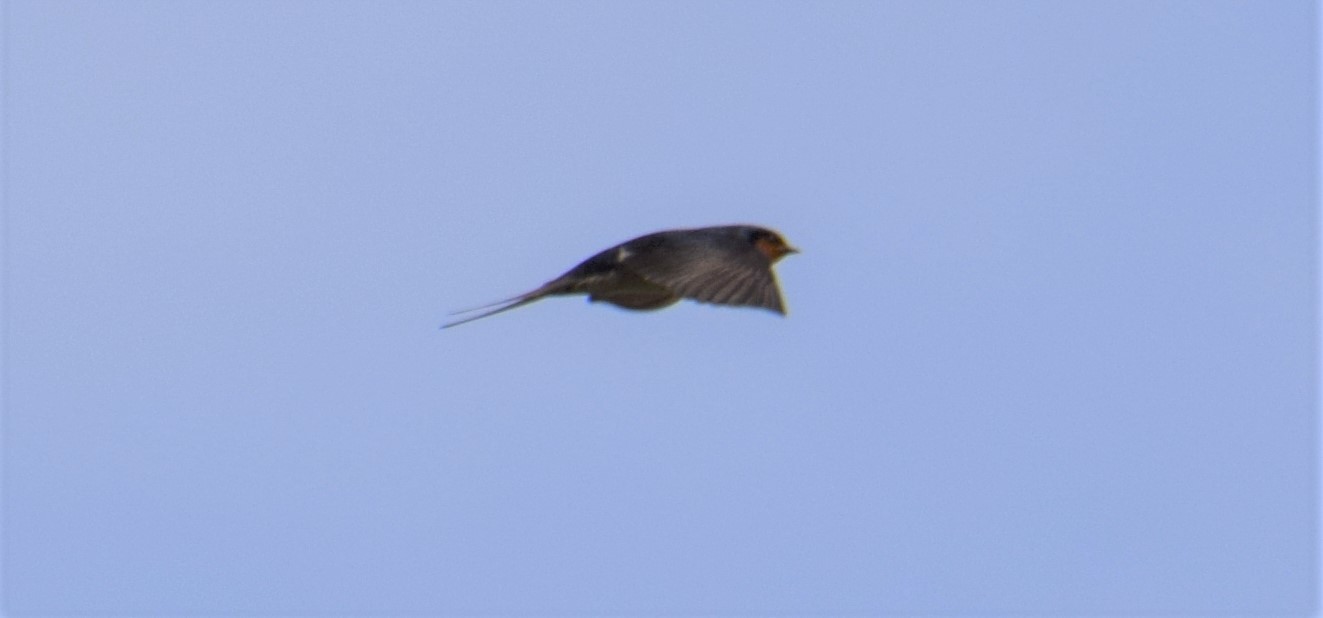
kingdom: Animalia
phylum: Chordata
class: Aves
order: Passeriformes
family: Hirundinidae
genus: Hirundo
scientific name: Hirundo neoxena
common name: Welcome swallow
